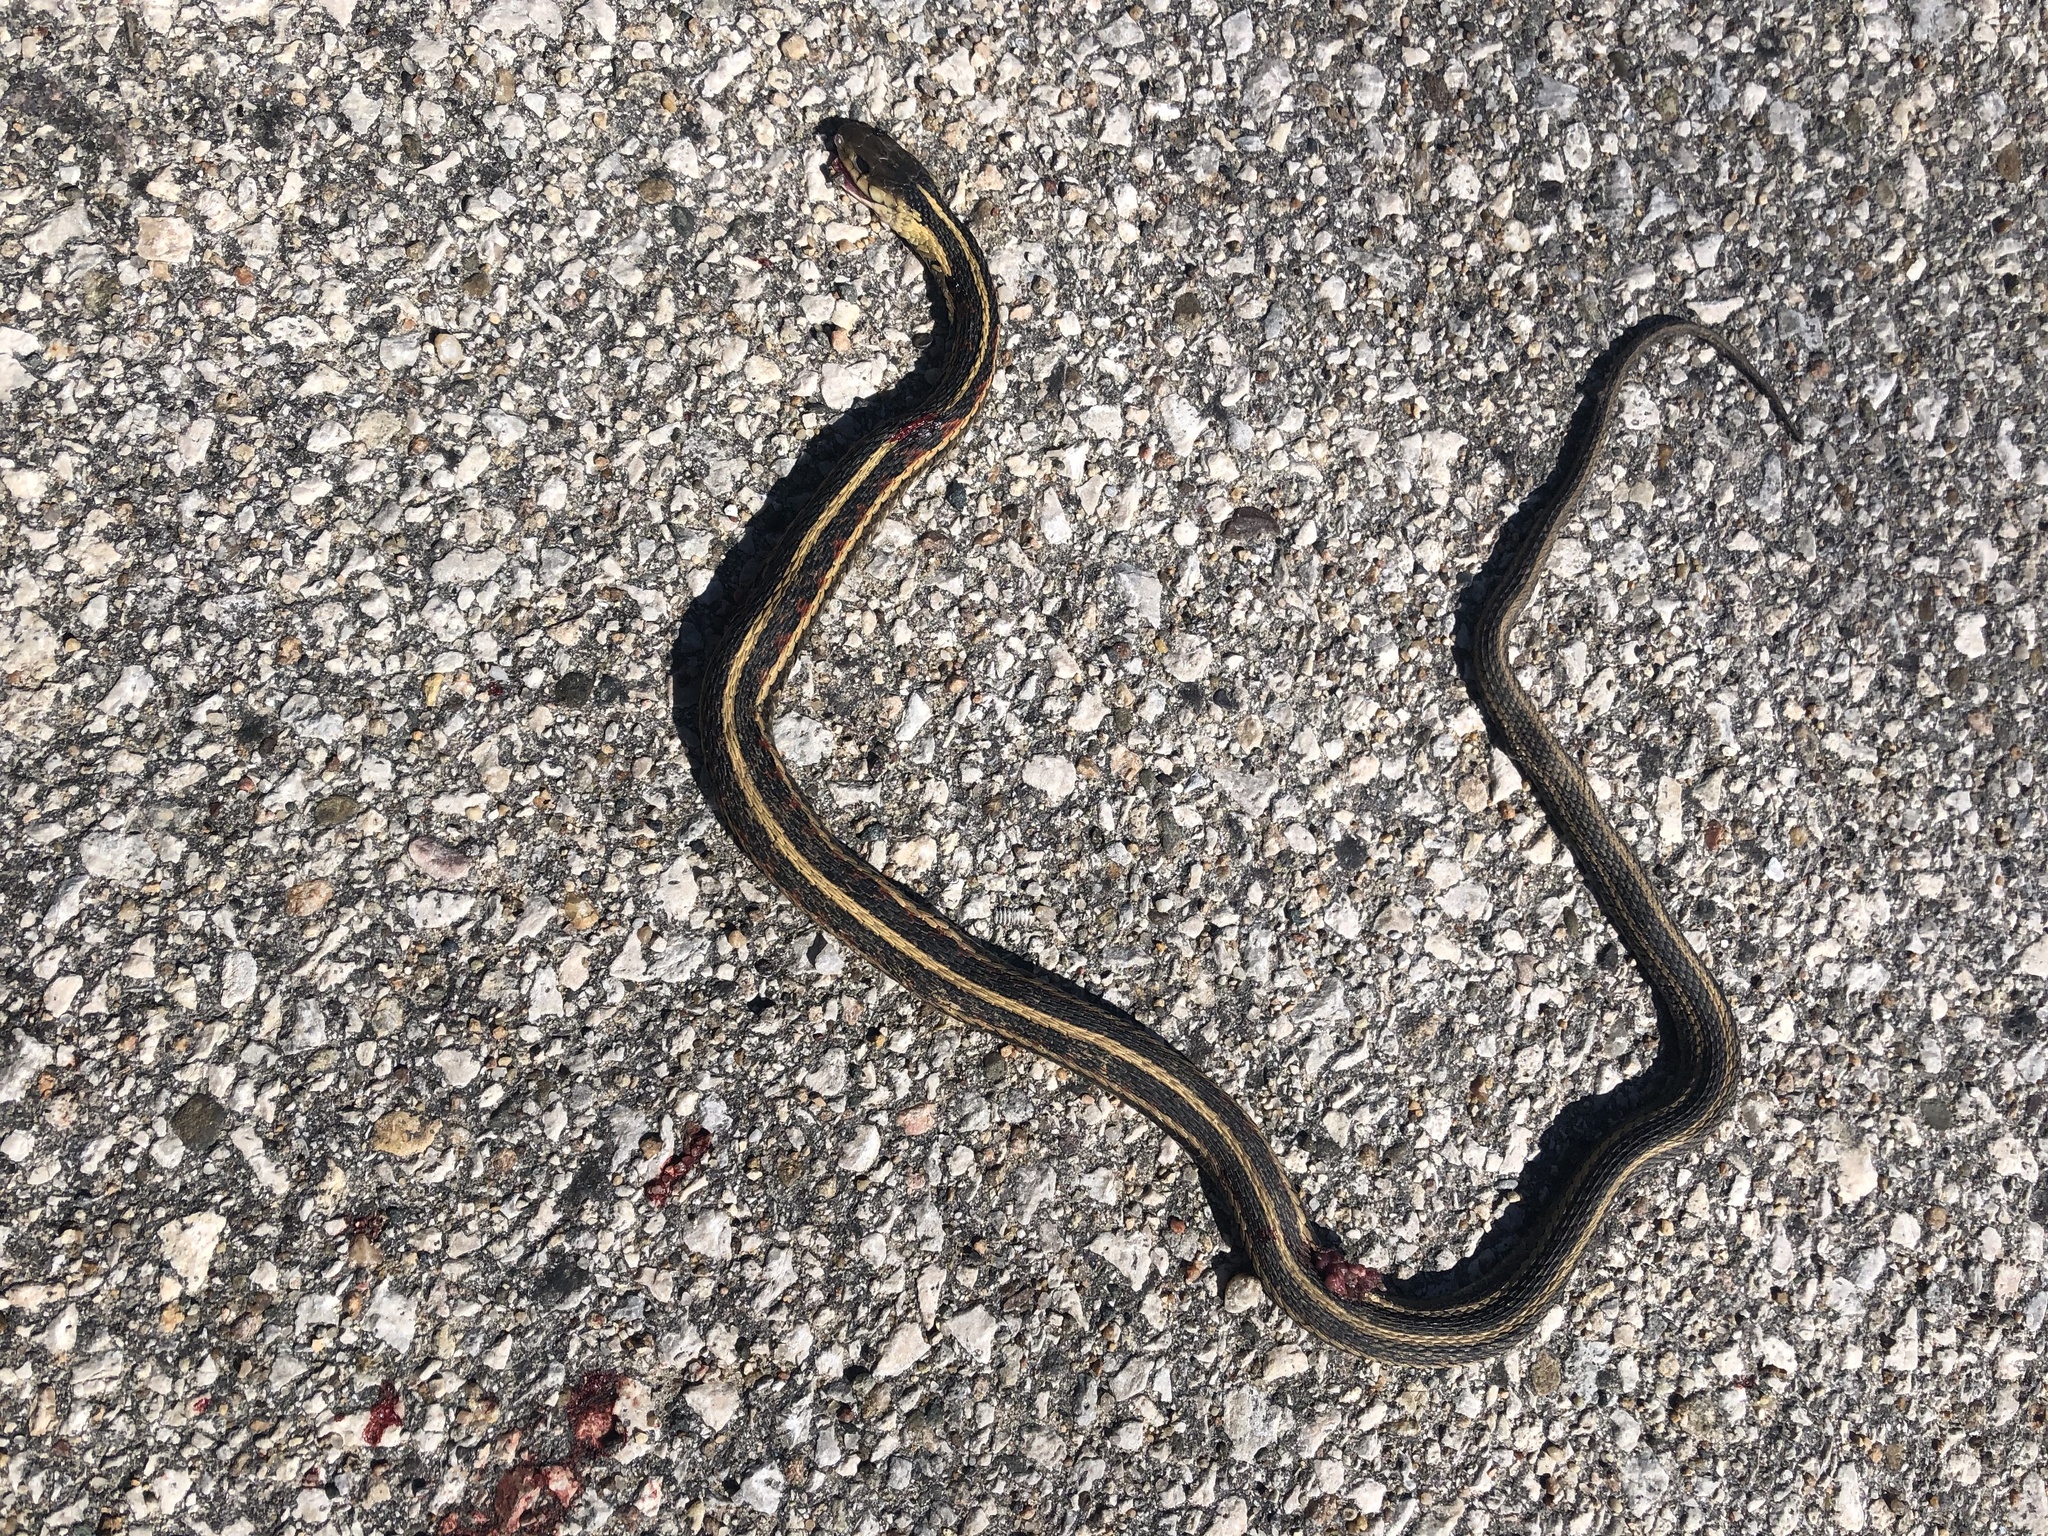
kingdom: Animalia
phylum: Chordata
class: Squamata
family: Colubridae
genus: Thamnophis
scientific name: Thamnophis sirtalis
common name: Common garter snake
